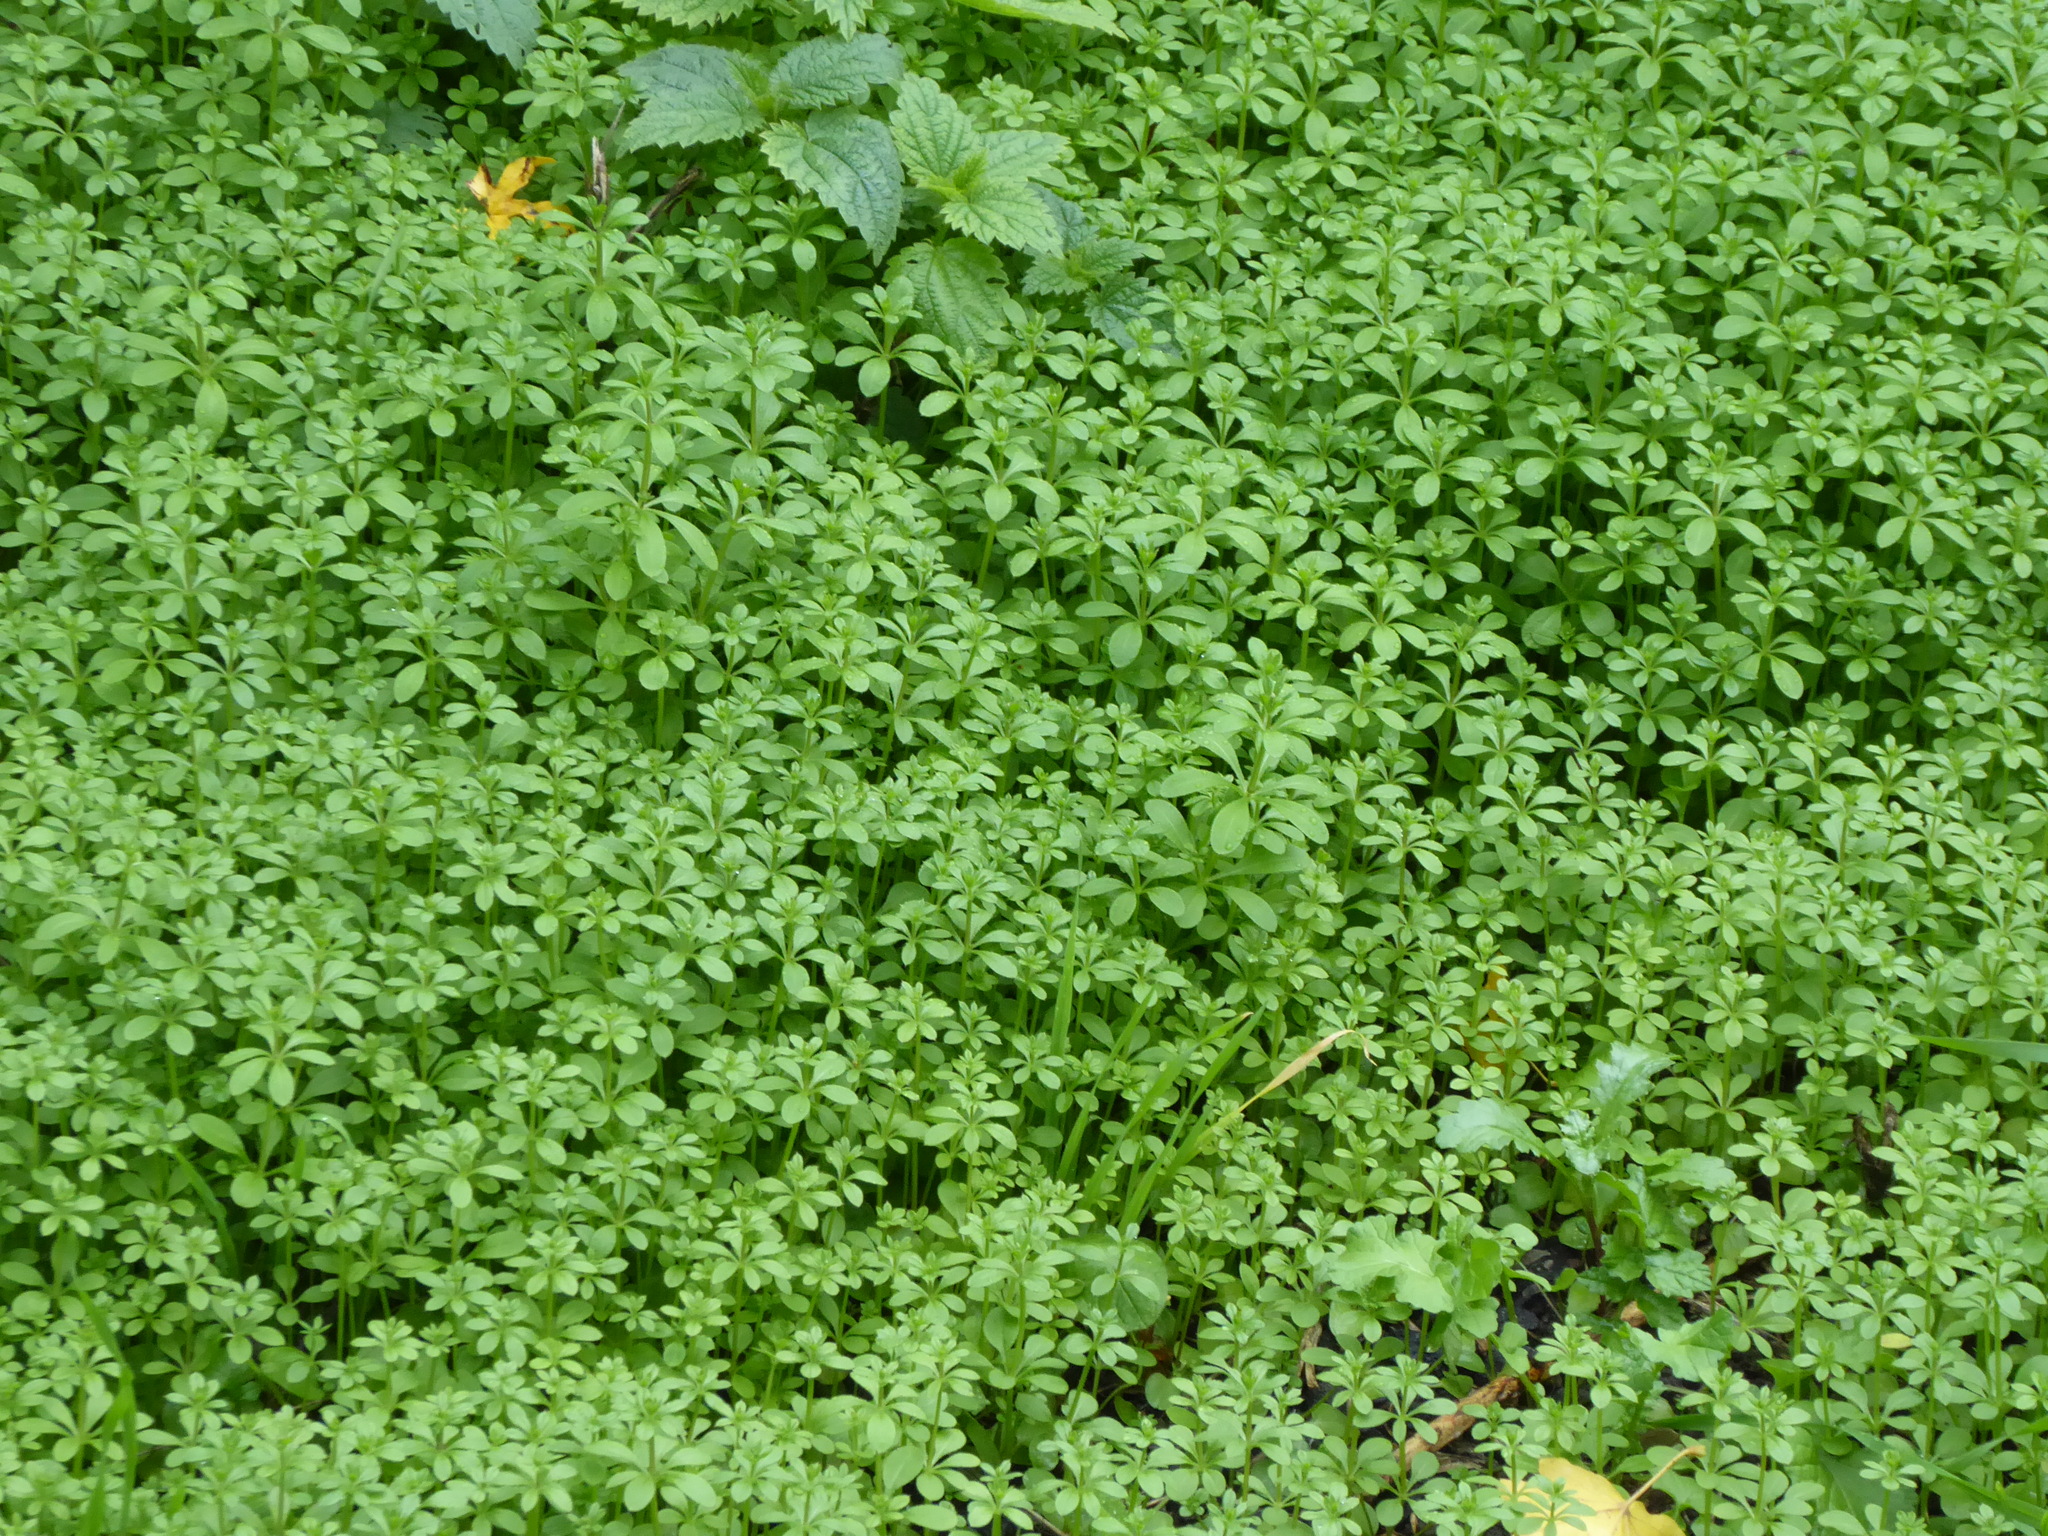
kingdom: Plantae
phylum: Tracheophyta
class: Magnoliopsida
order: Gentianales
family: Rubiaceae
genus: Galium
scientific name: Galium aparine
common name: Cleavers
